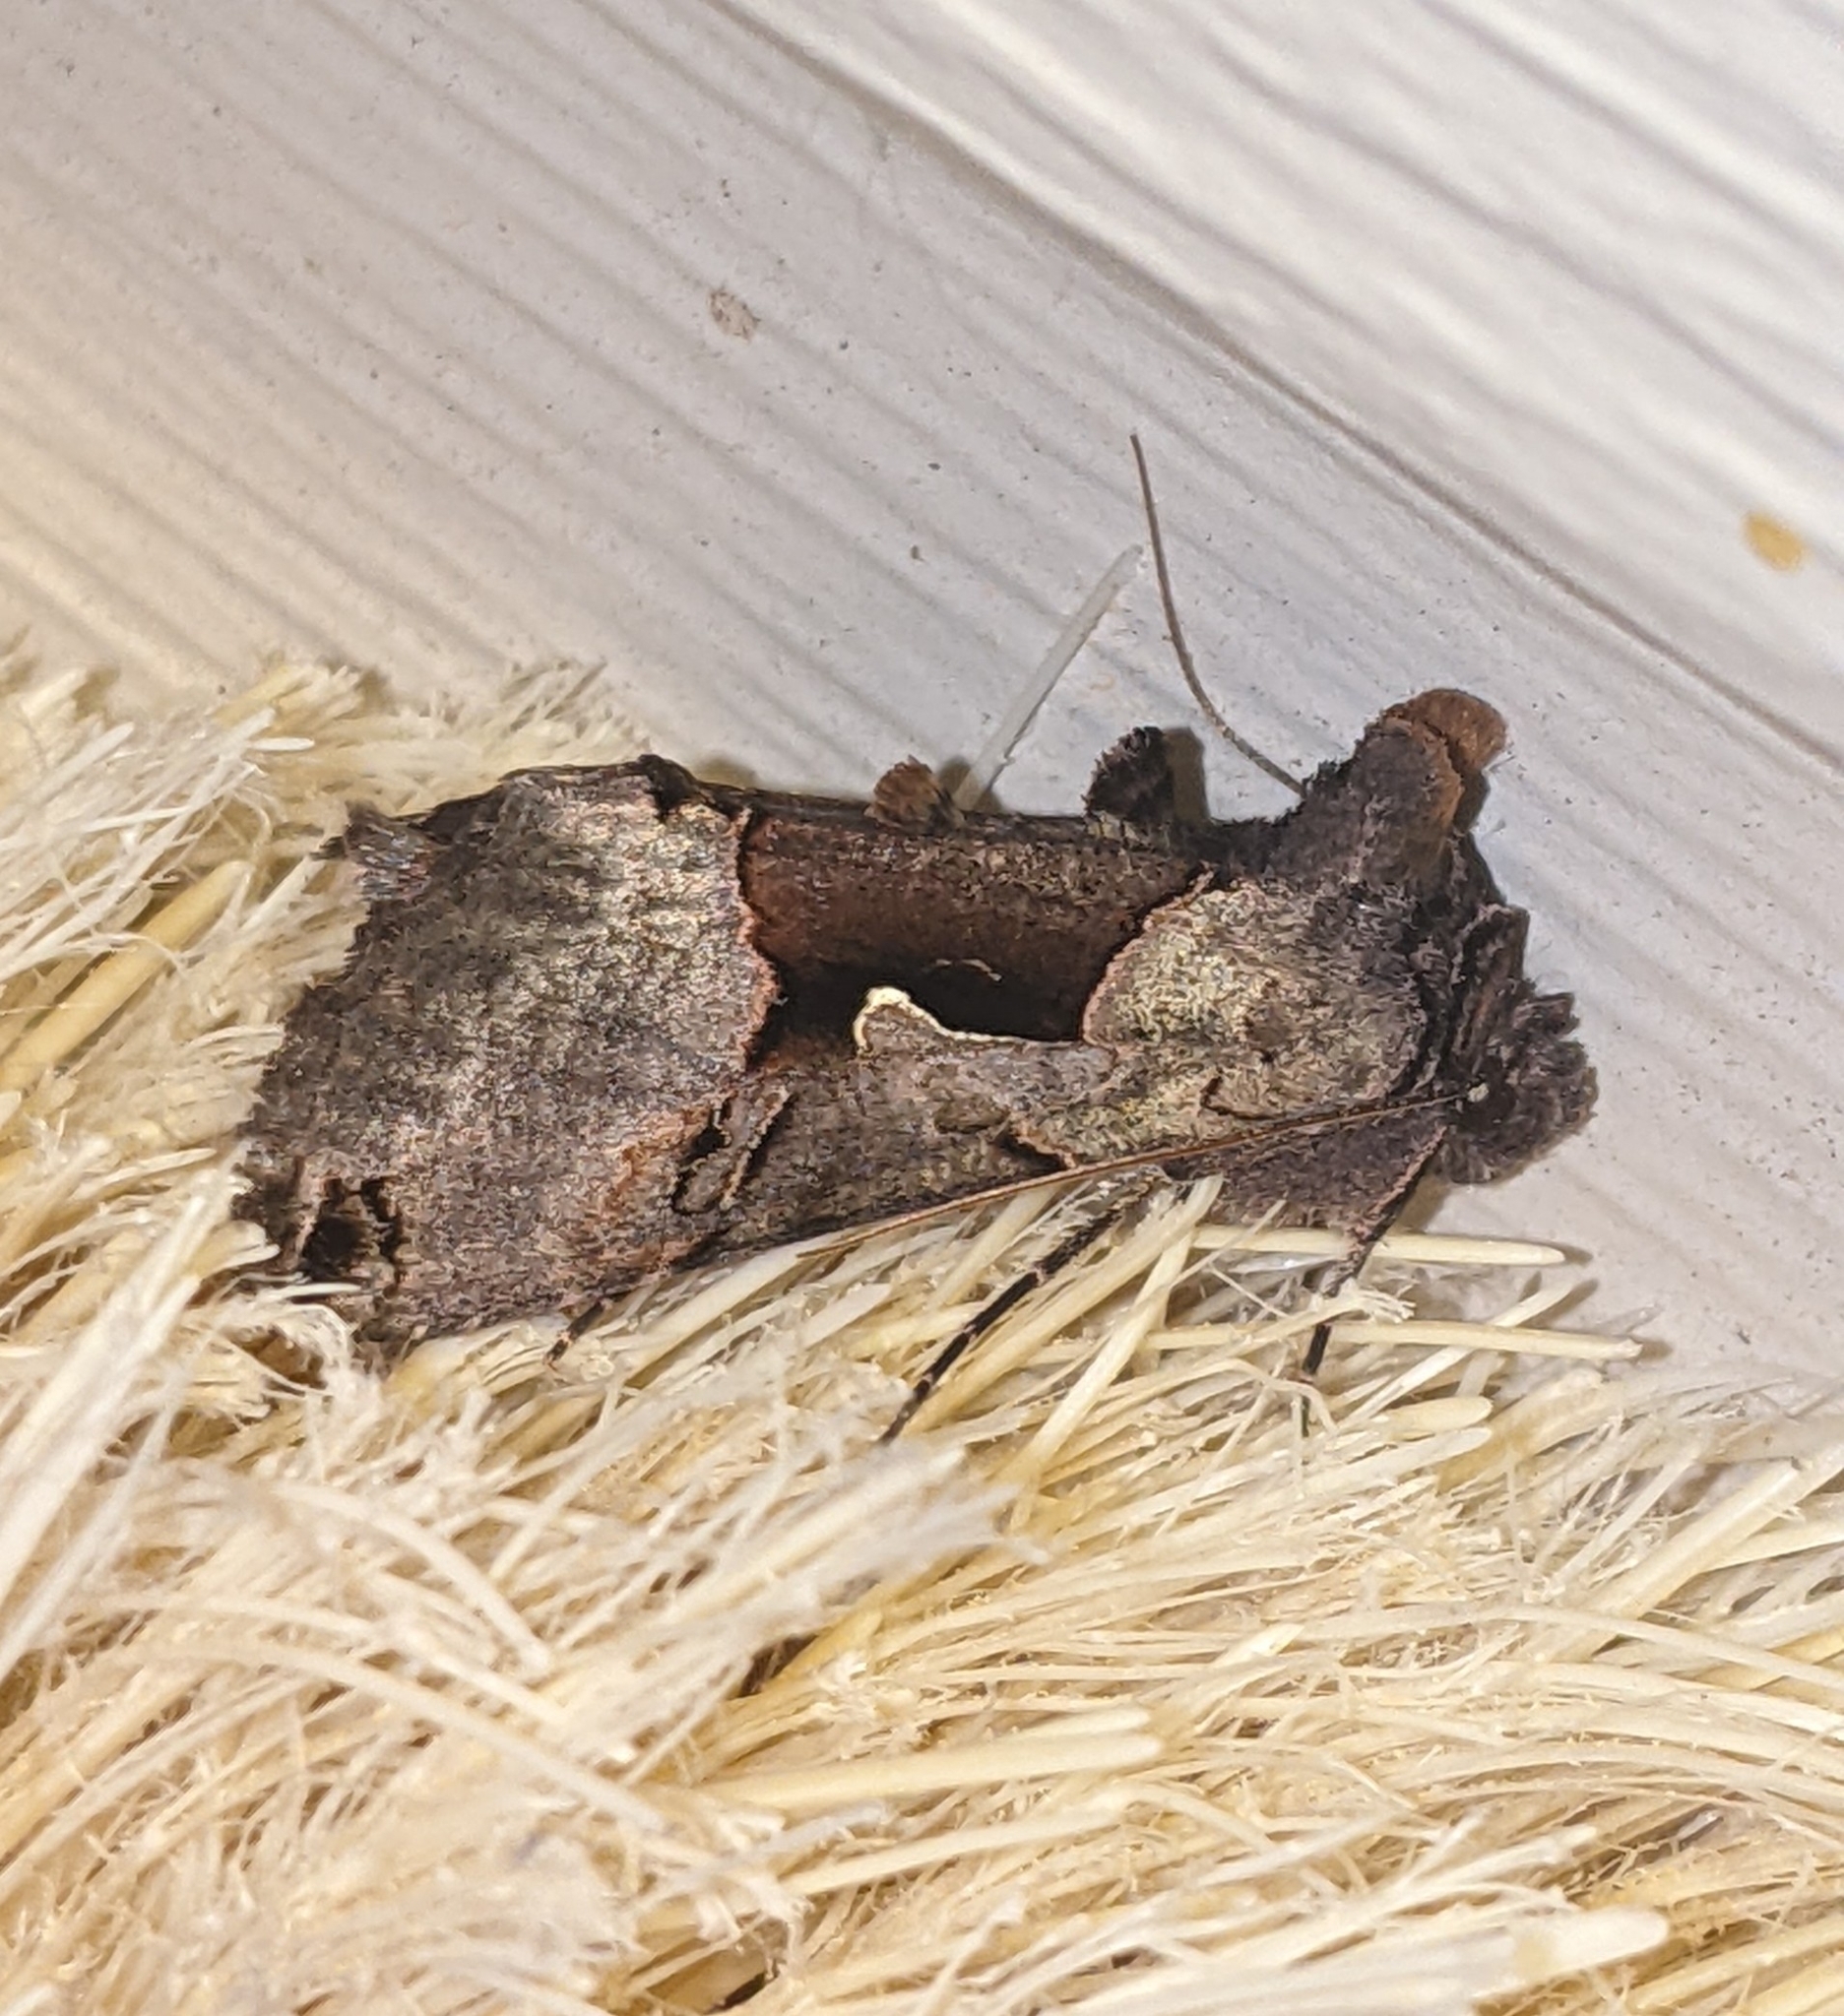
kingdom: Animalia
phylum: Arthropoda
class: Insecta
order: Lepidoptera
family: Noctuidae
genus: Autographa
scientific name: Autographa ampla
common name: Large looper moth
